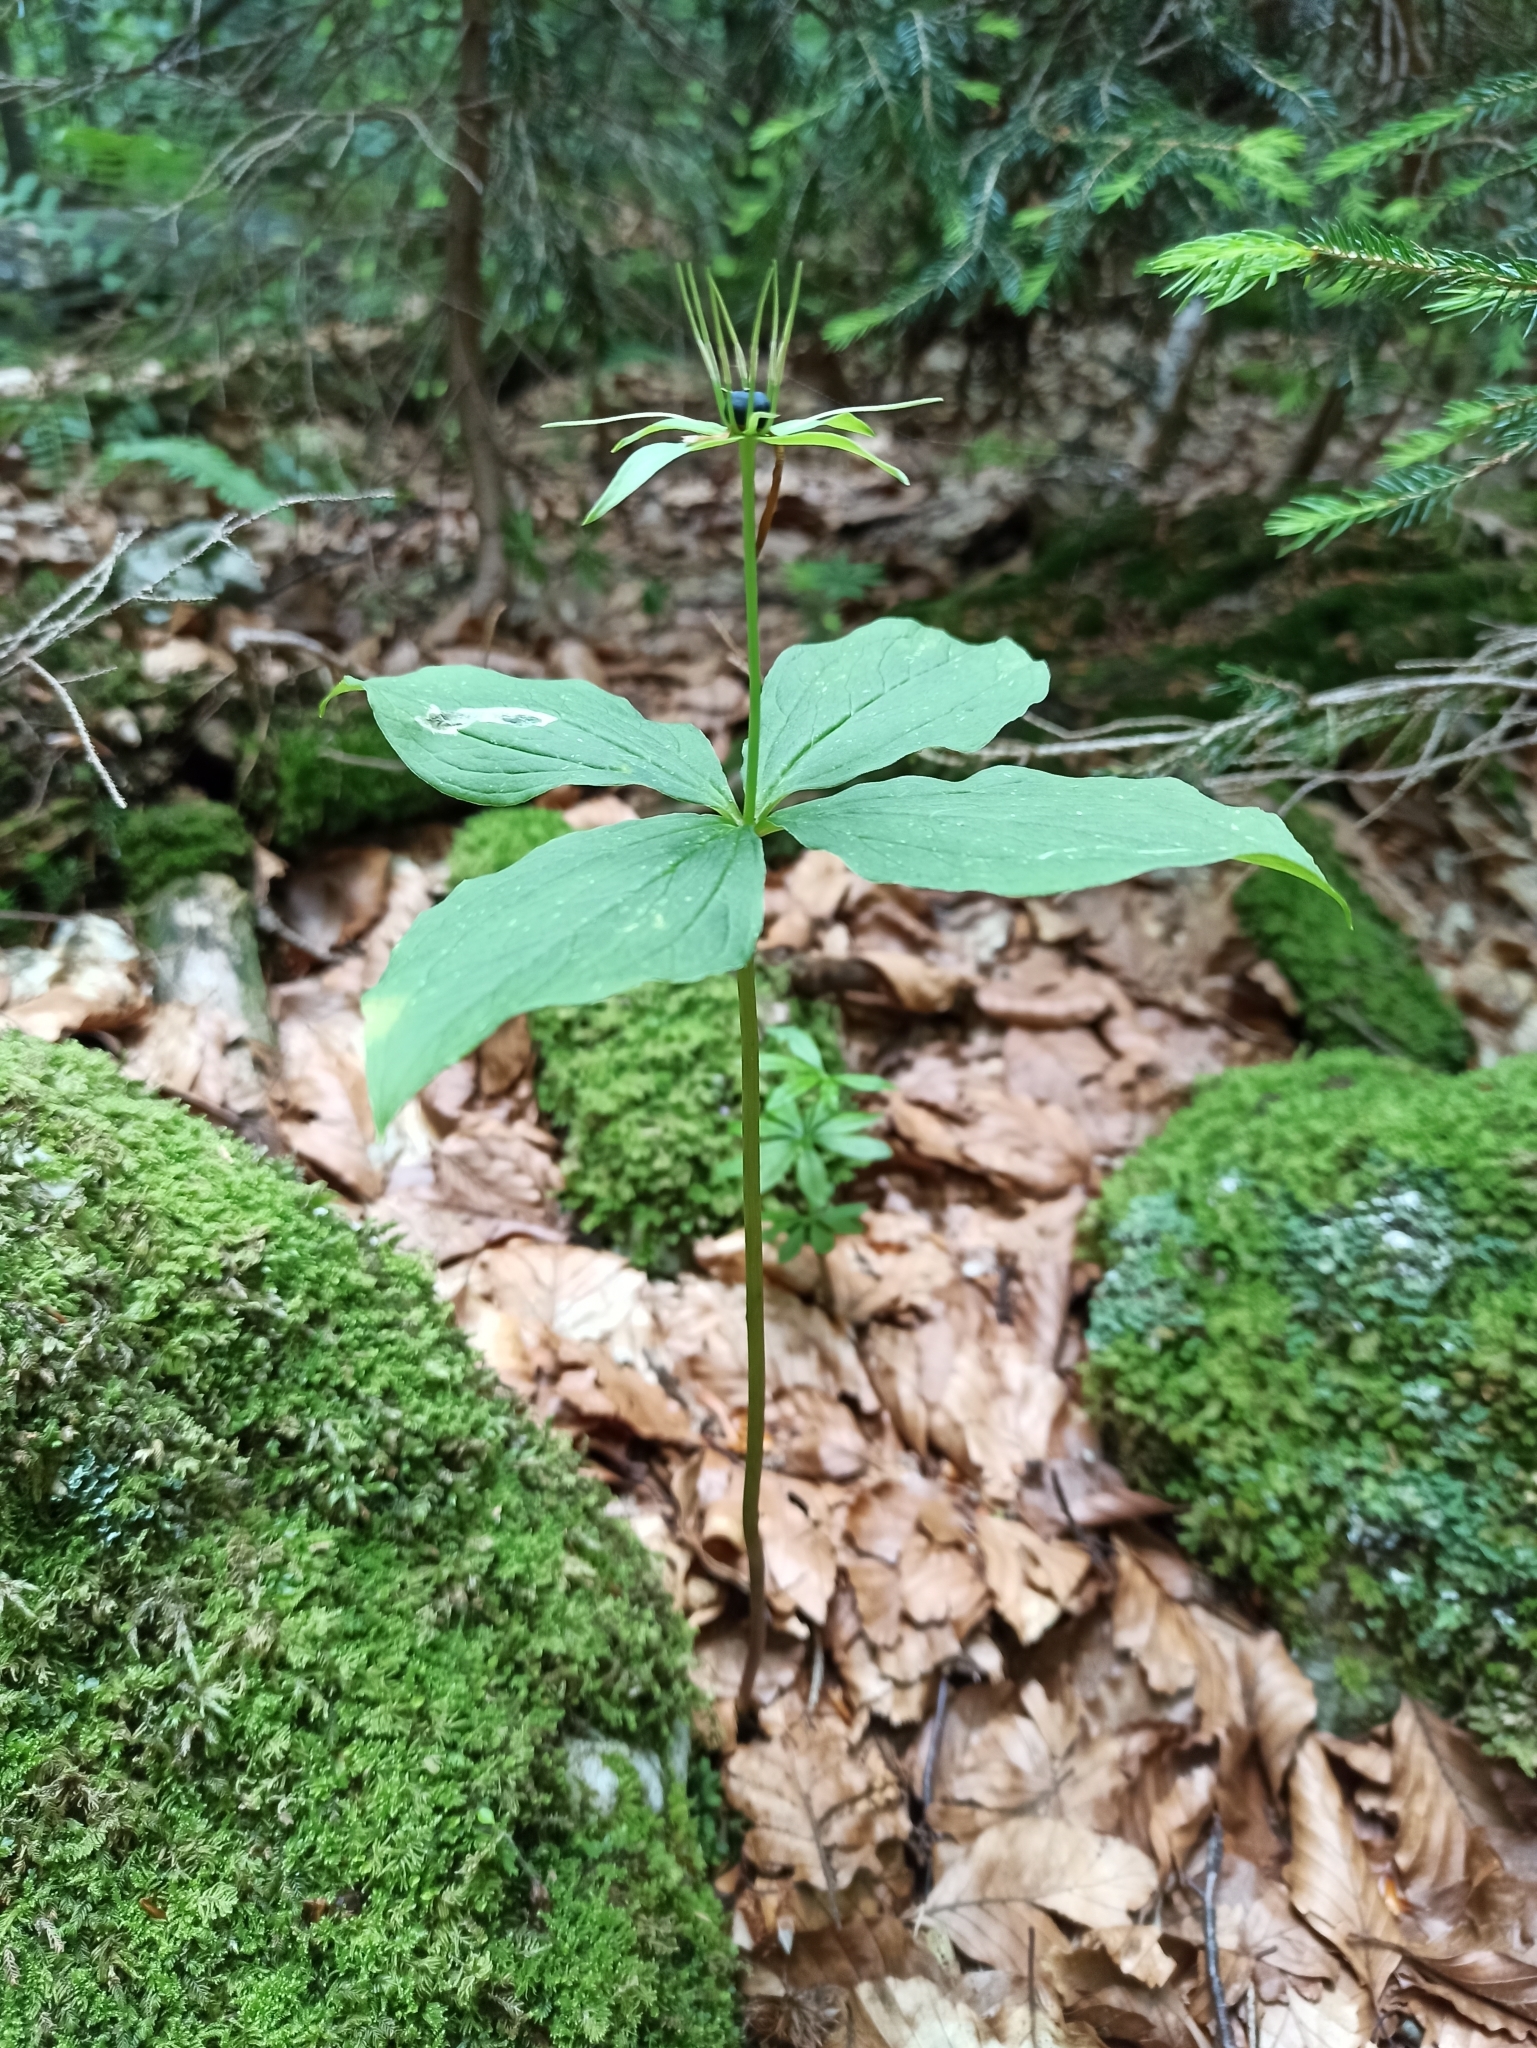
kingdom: Plantae
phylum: Tracheophyta
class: Liliopsida
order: Liliales
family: Melanthiaceae
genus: Paris
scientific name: Paris quadrifolia
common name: Herb-paris
